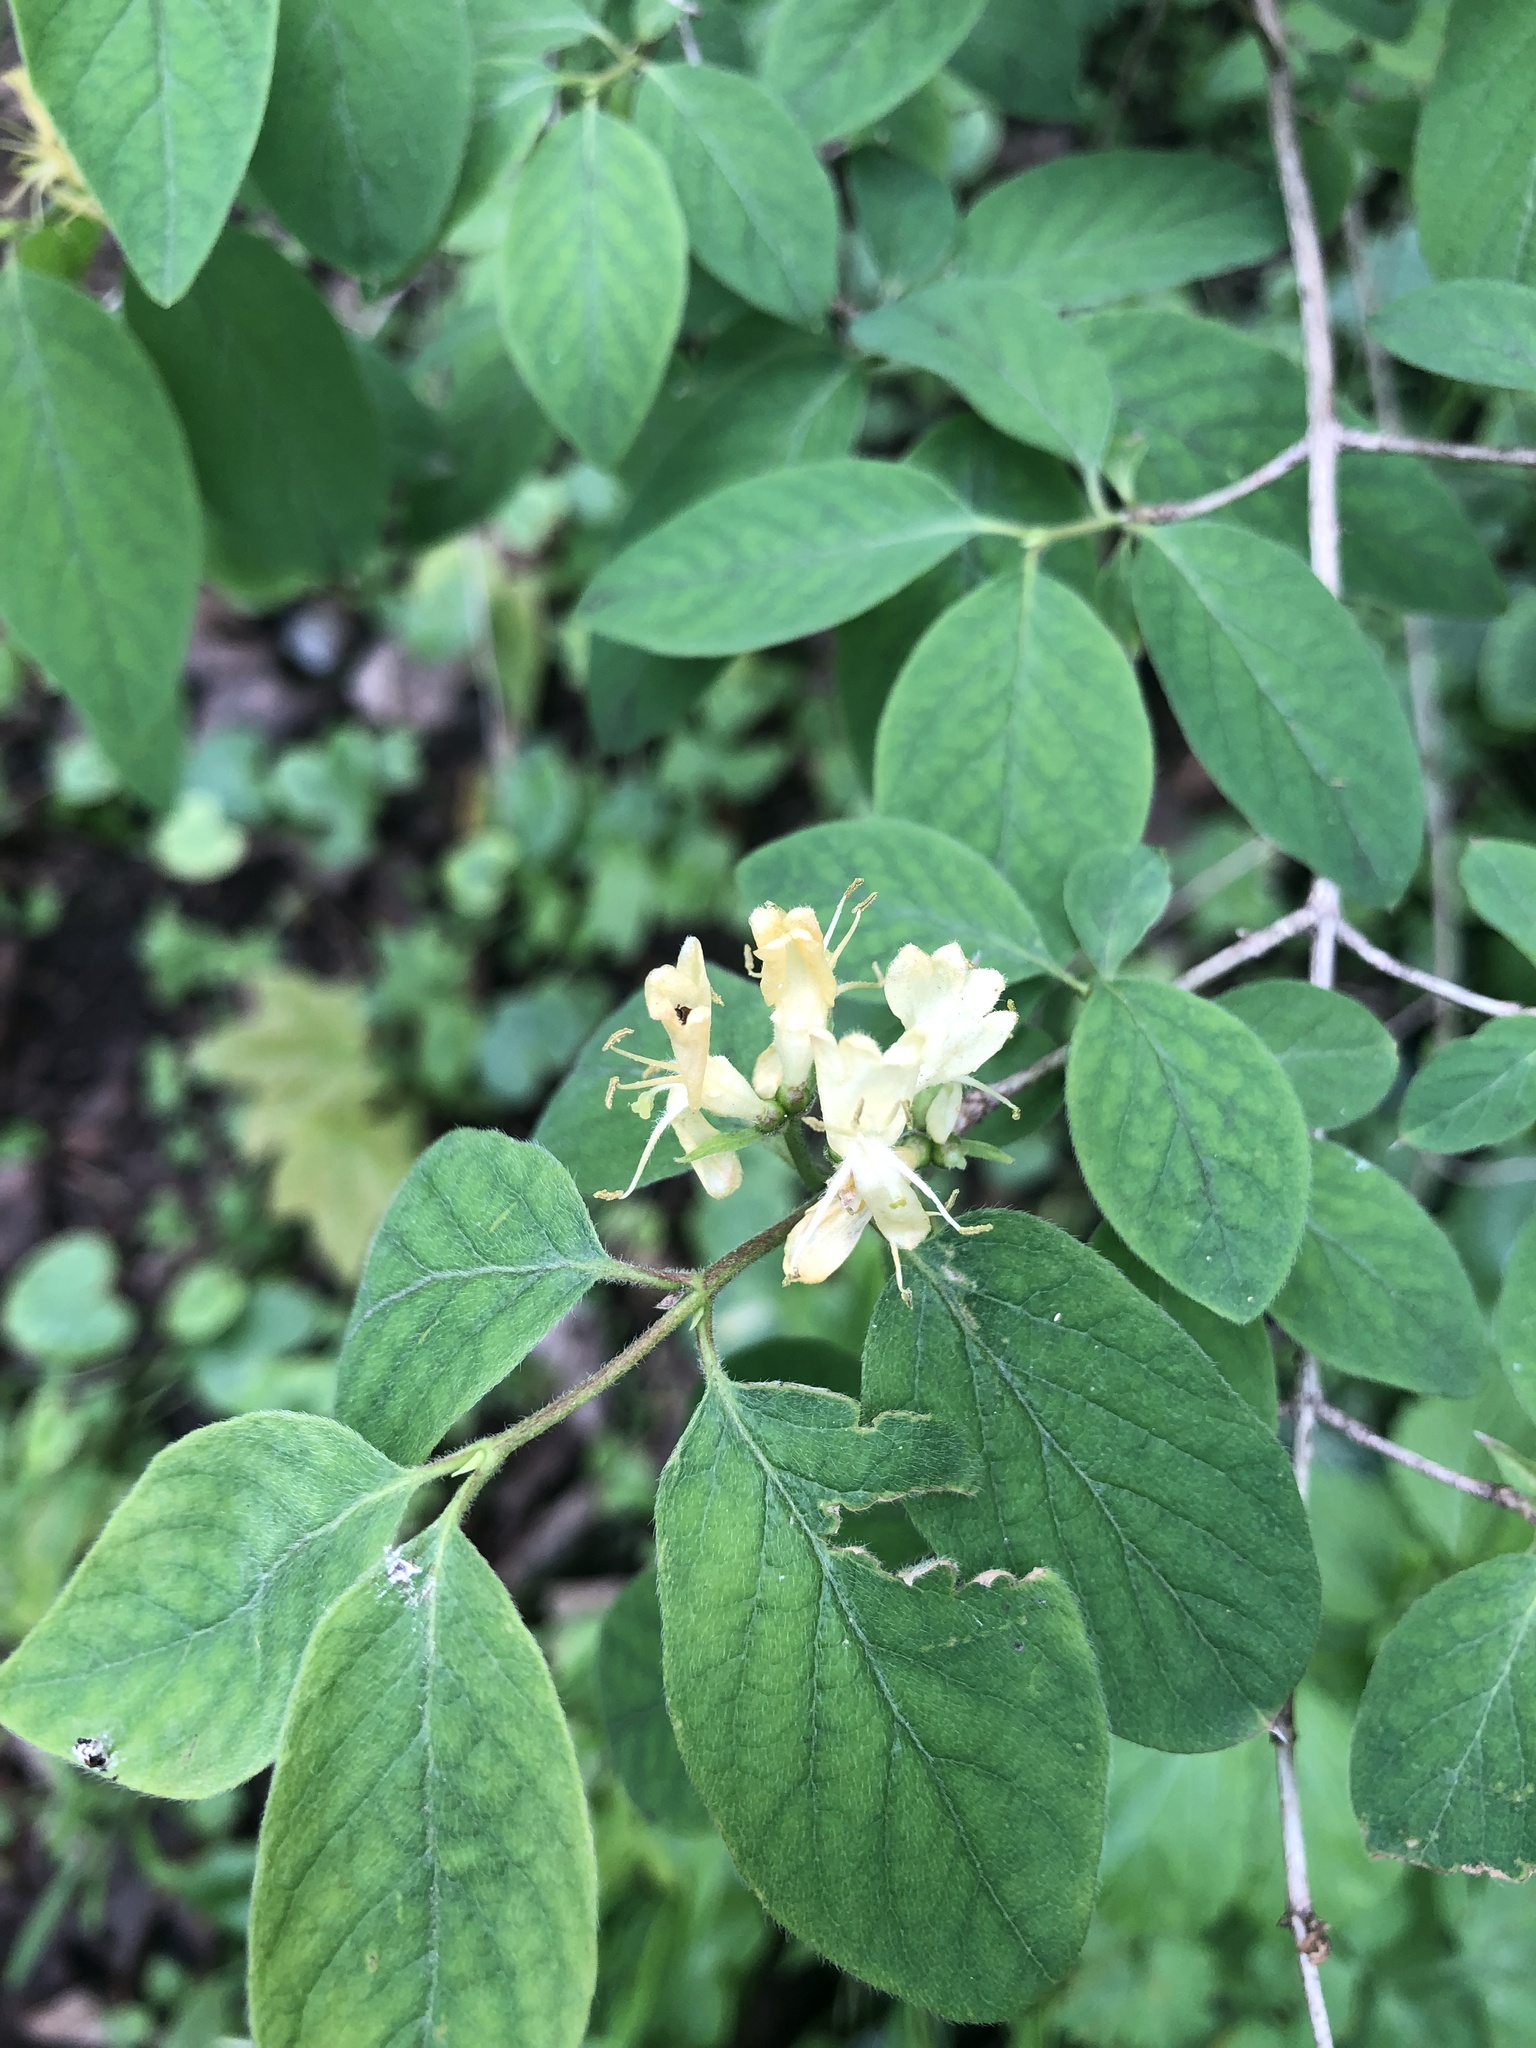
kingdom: Plantae
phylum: Tracheophyta
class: Magnoliopsida
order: Dipsacales
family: Caprifoliaceae
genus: Lonicera
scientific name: Lonicera xylosteum
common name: Fly honeysuckle
